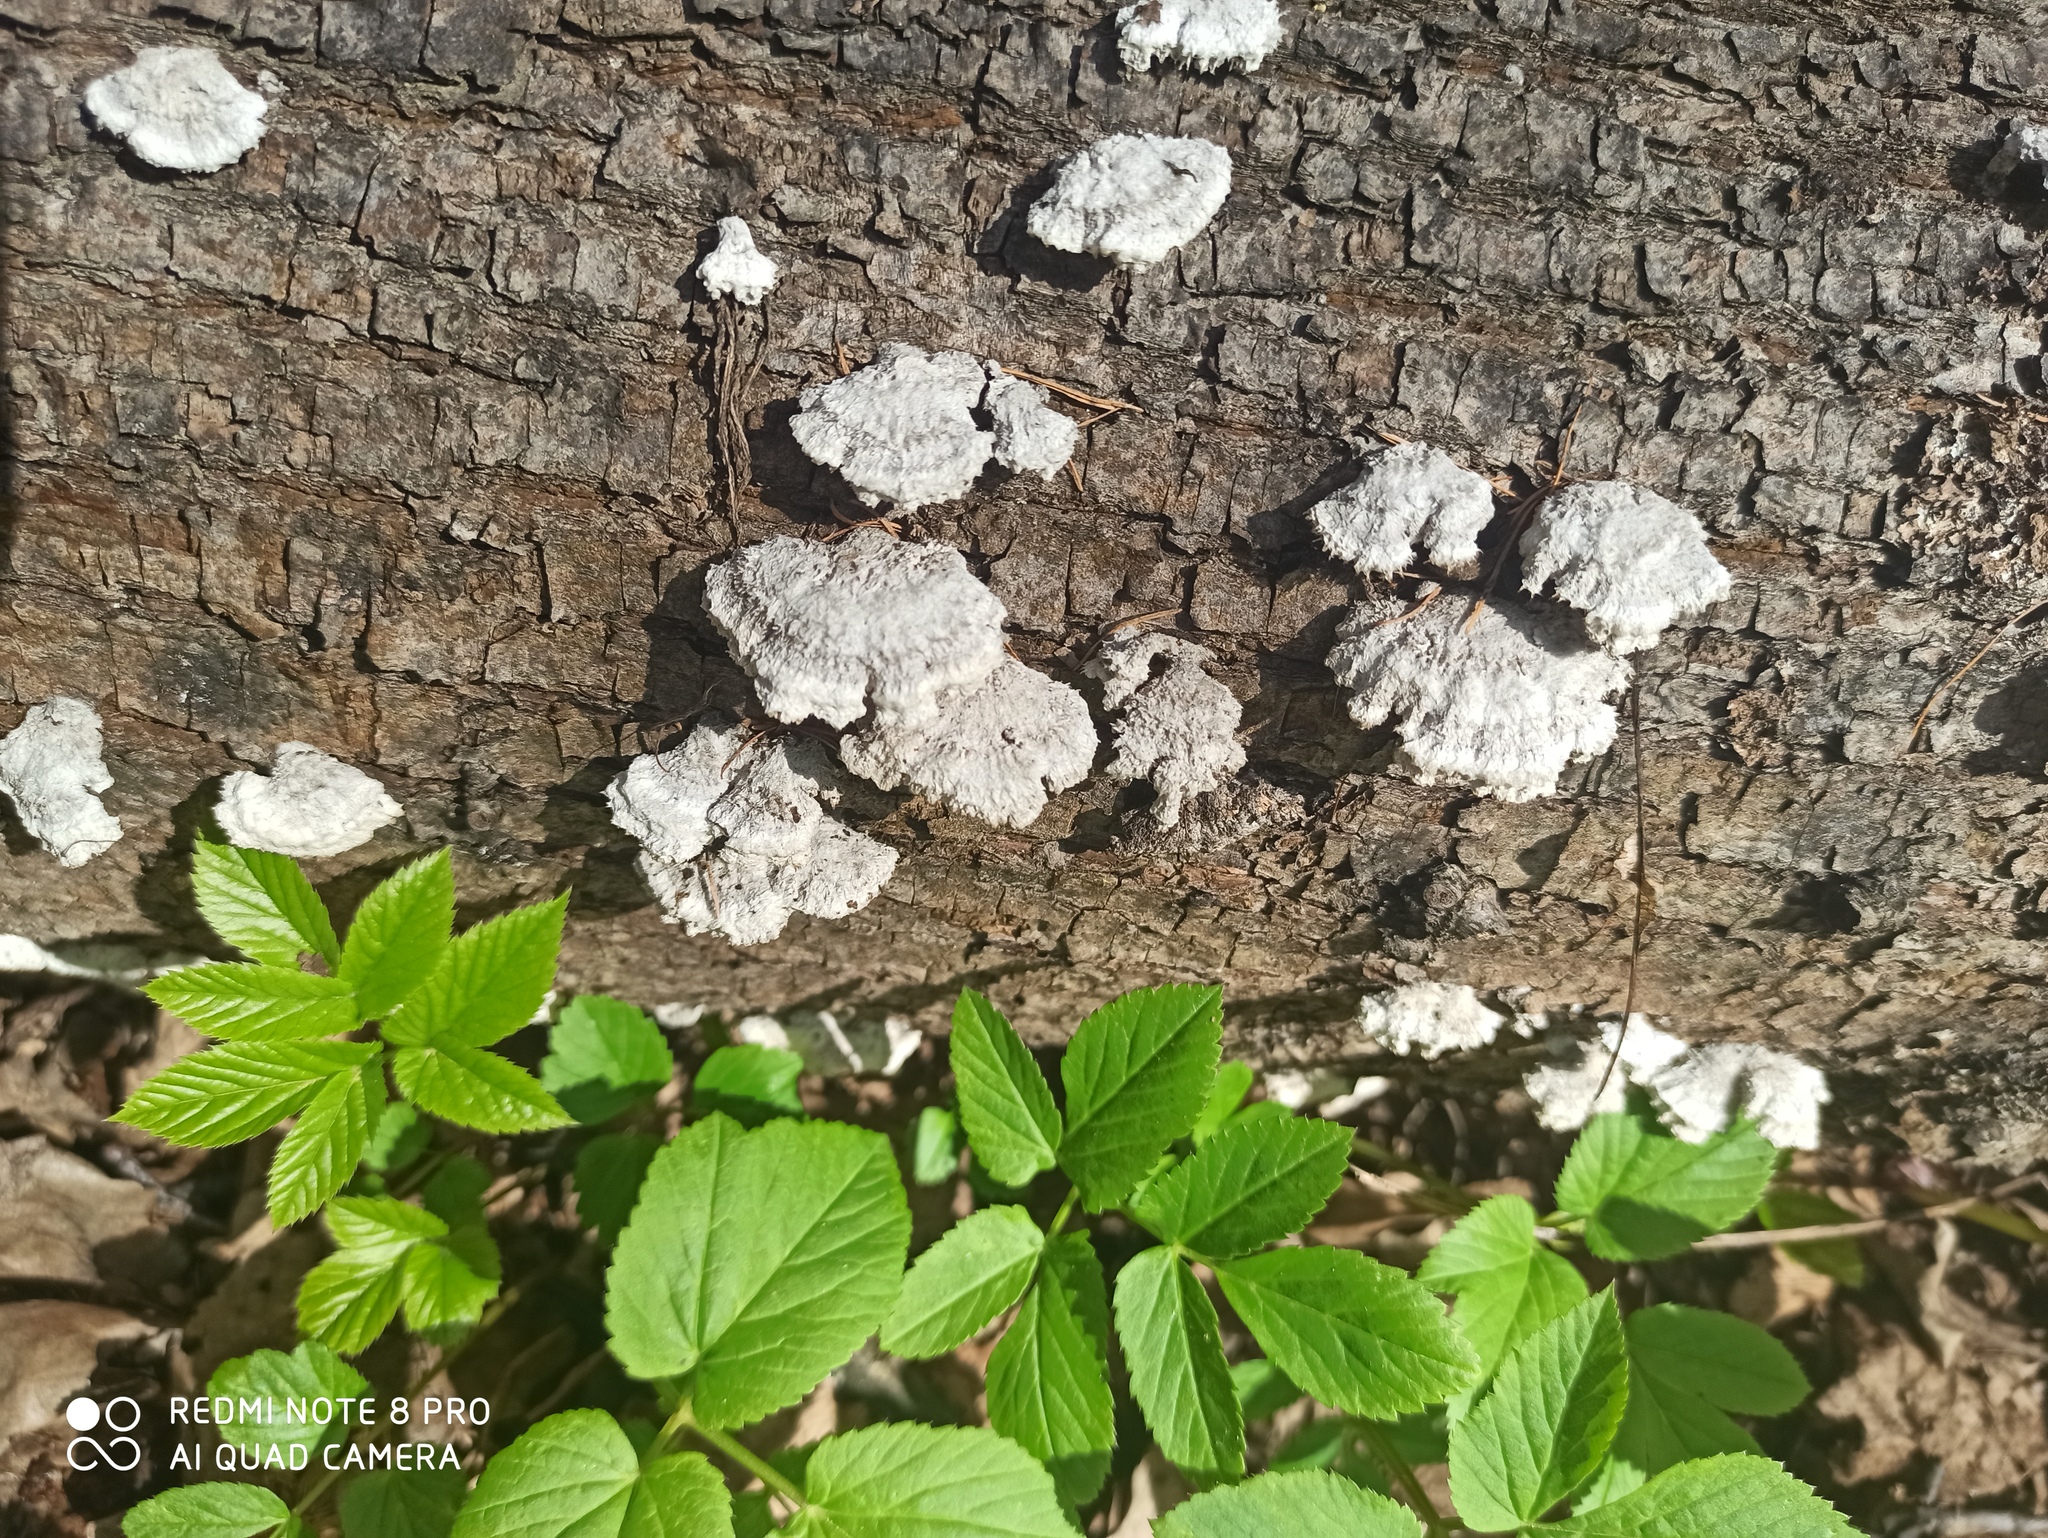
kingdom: Fungi
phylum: Basidiomycota
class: Agaricomycetes
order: Agaricales
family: Schizophyllaceae
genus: Schizophyllum
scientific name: Schizophyllum commune
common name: Common porecrust
